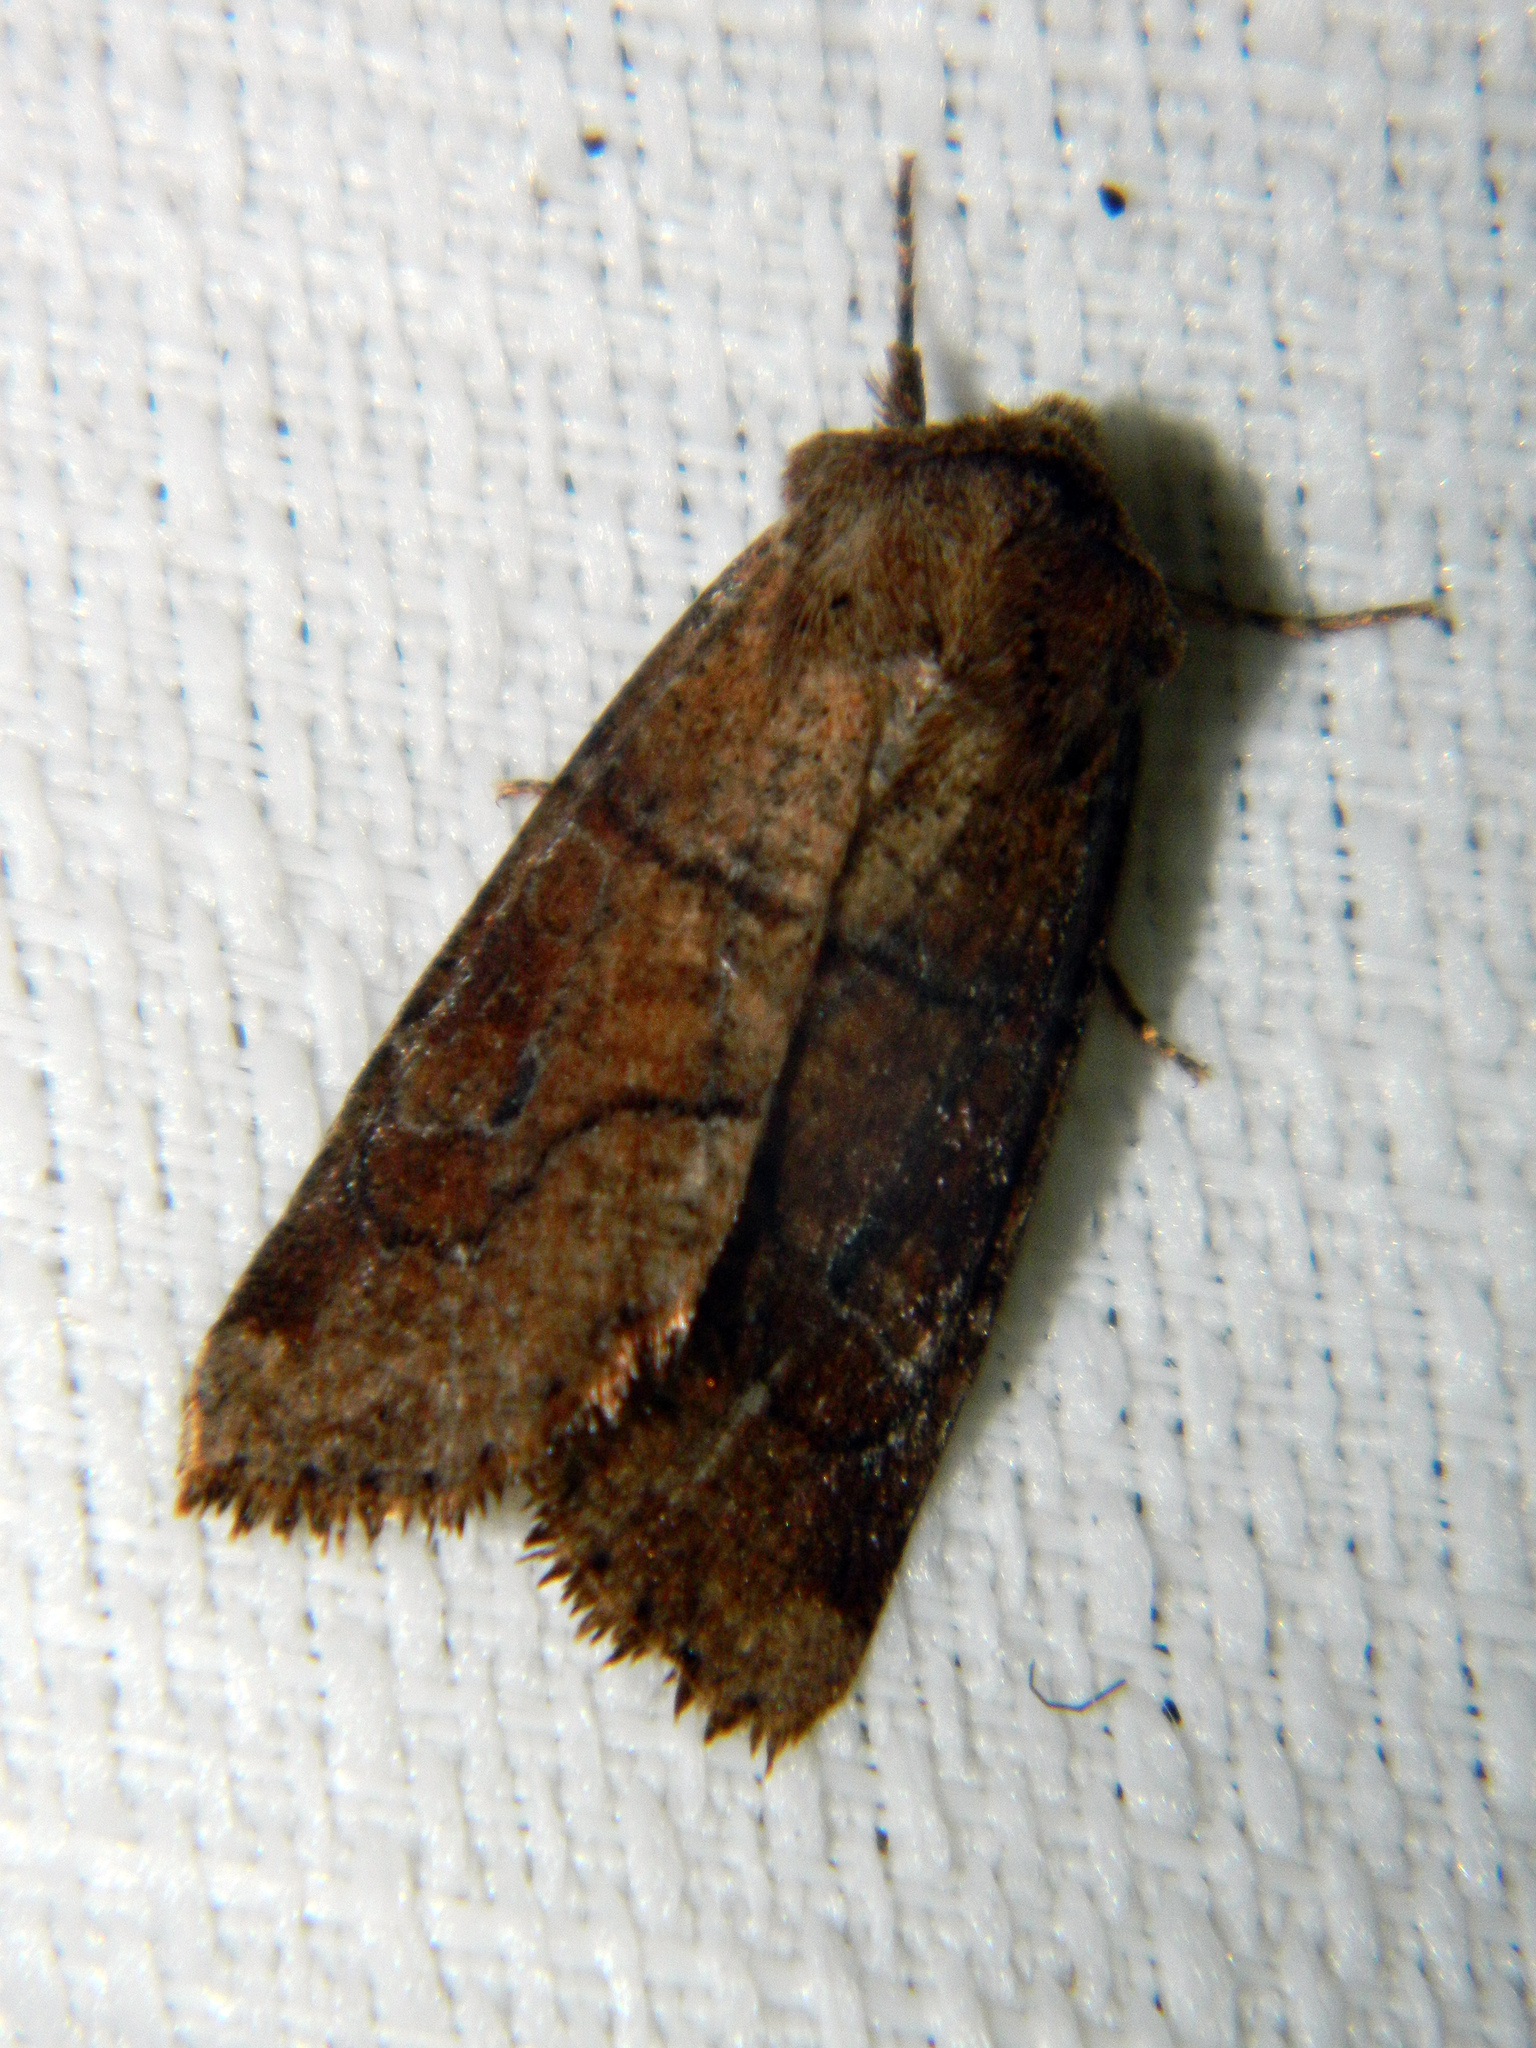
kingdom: Animalia
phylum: Arthropoda
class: Insecta
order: Lepidoptera
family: Noctuidae
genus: Crocigrapha
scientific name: Crocigrapha normani
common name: Norman's quaker
